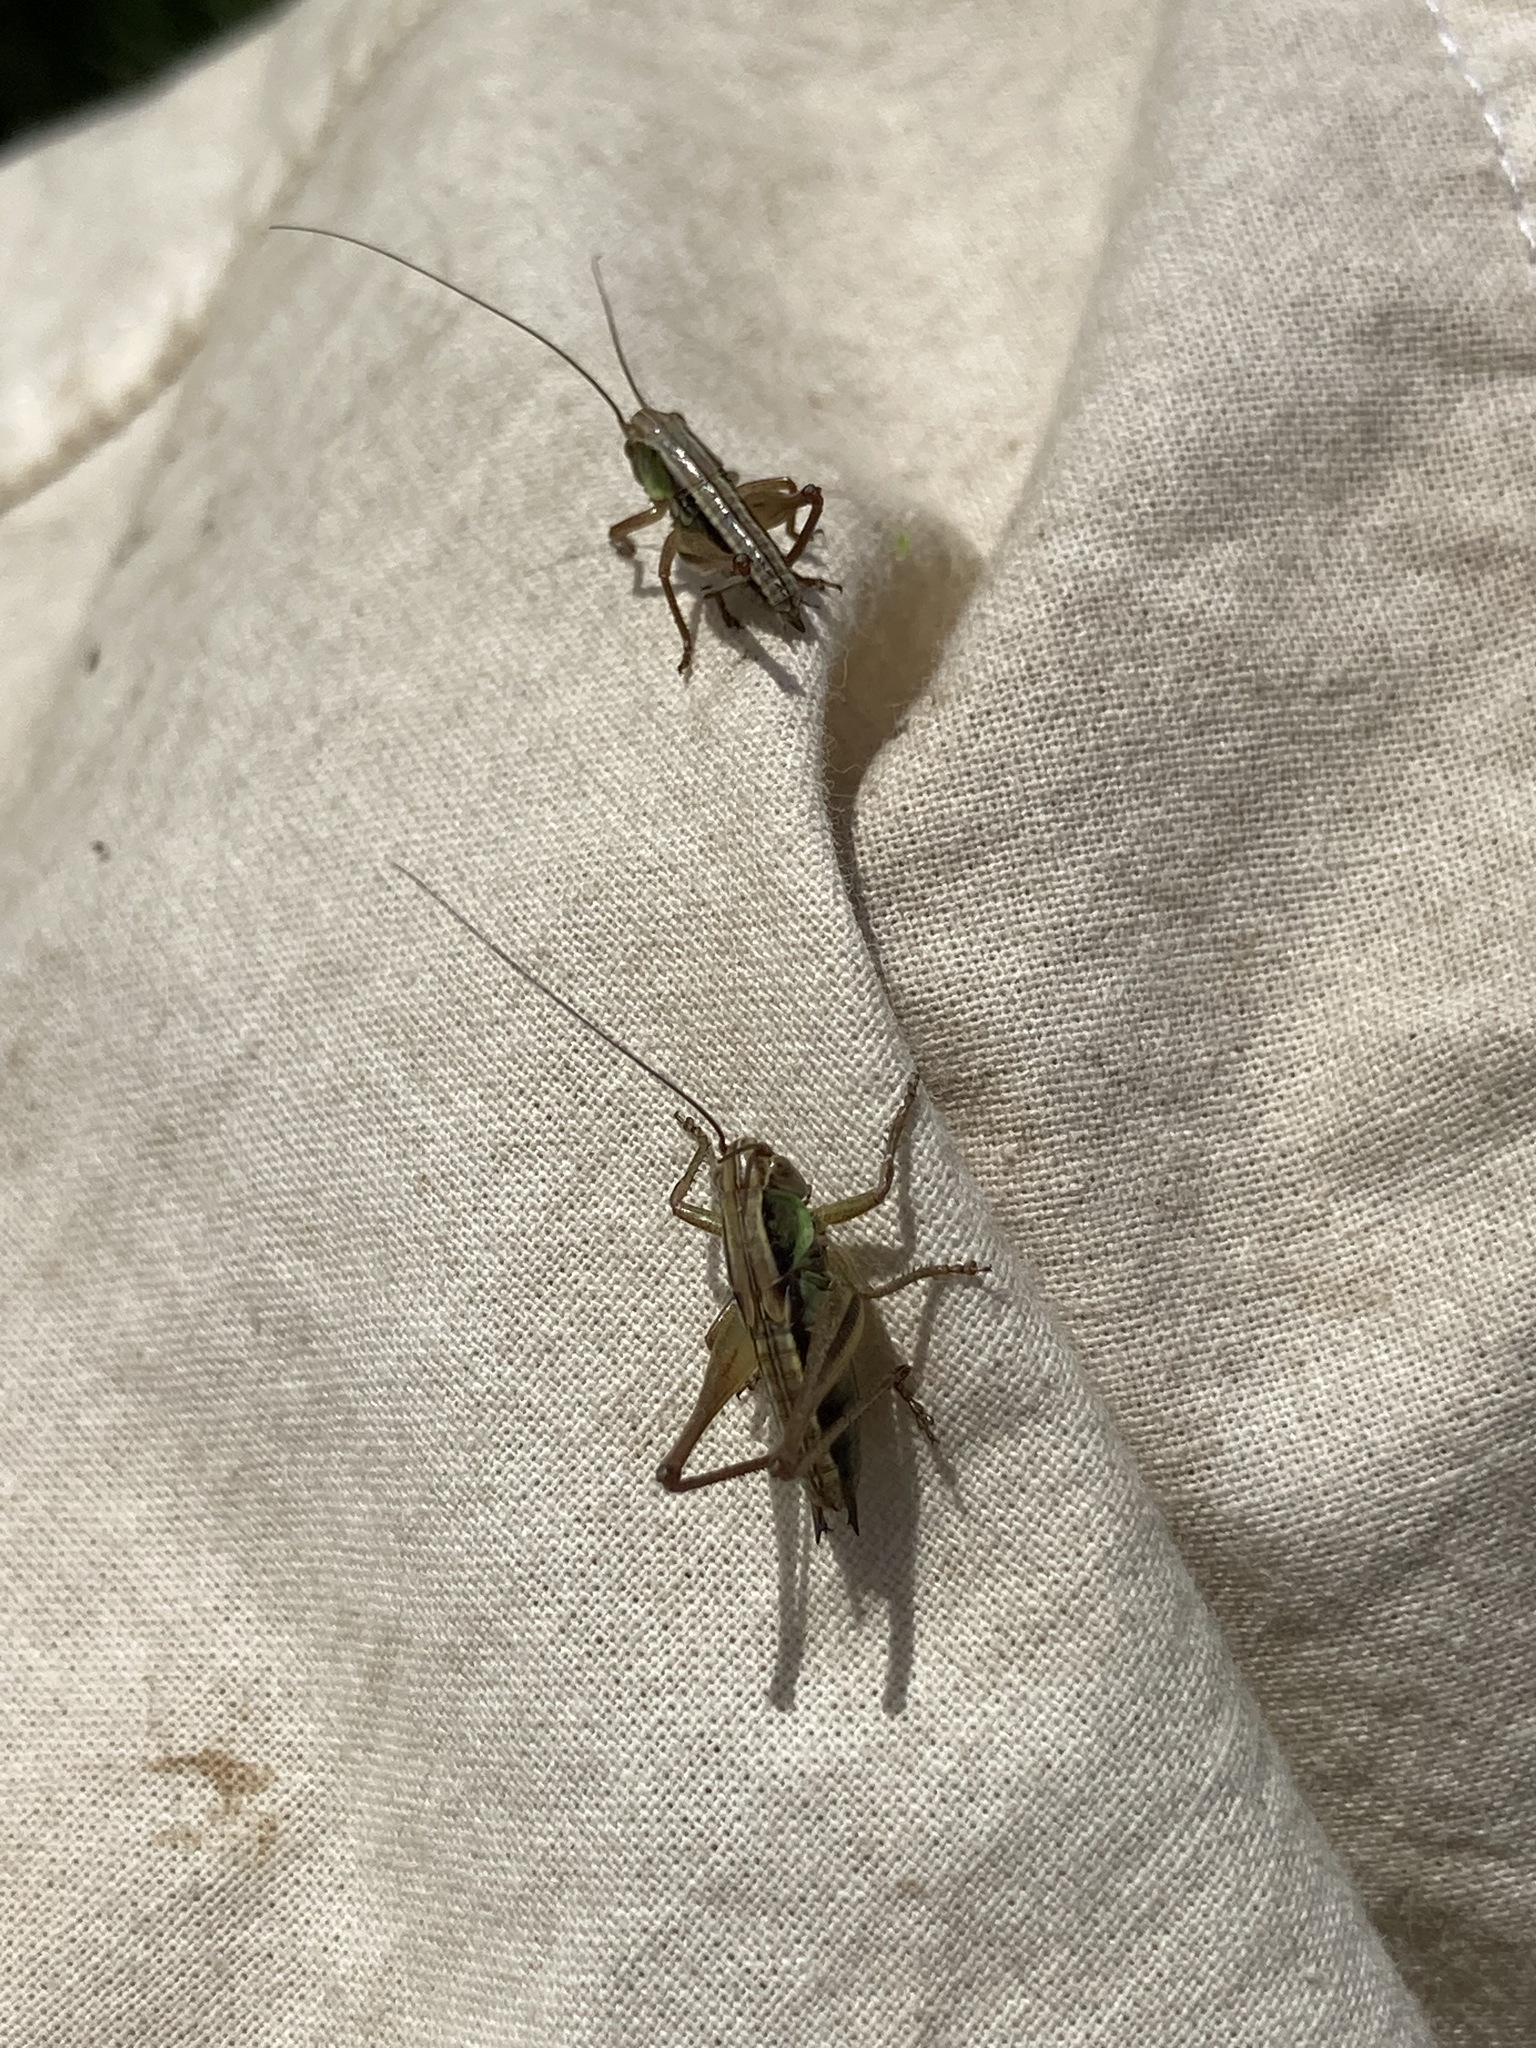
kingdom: Animalia
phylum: Arthropoda
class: Insecta
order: Orthoptera
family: Tettigoniidae
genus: Roeseliana
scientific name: Roeseliana roeselii
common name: Roesel's bush cricket
